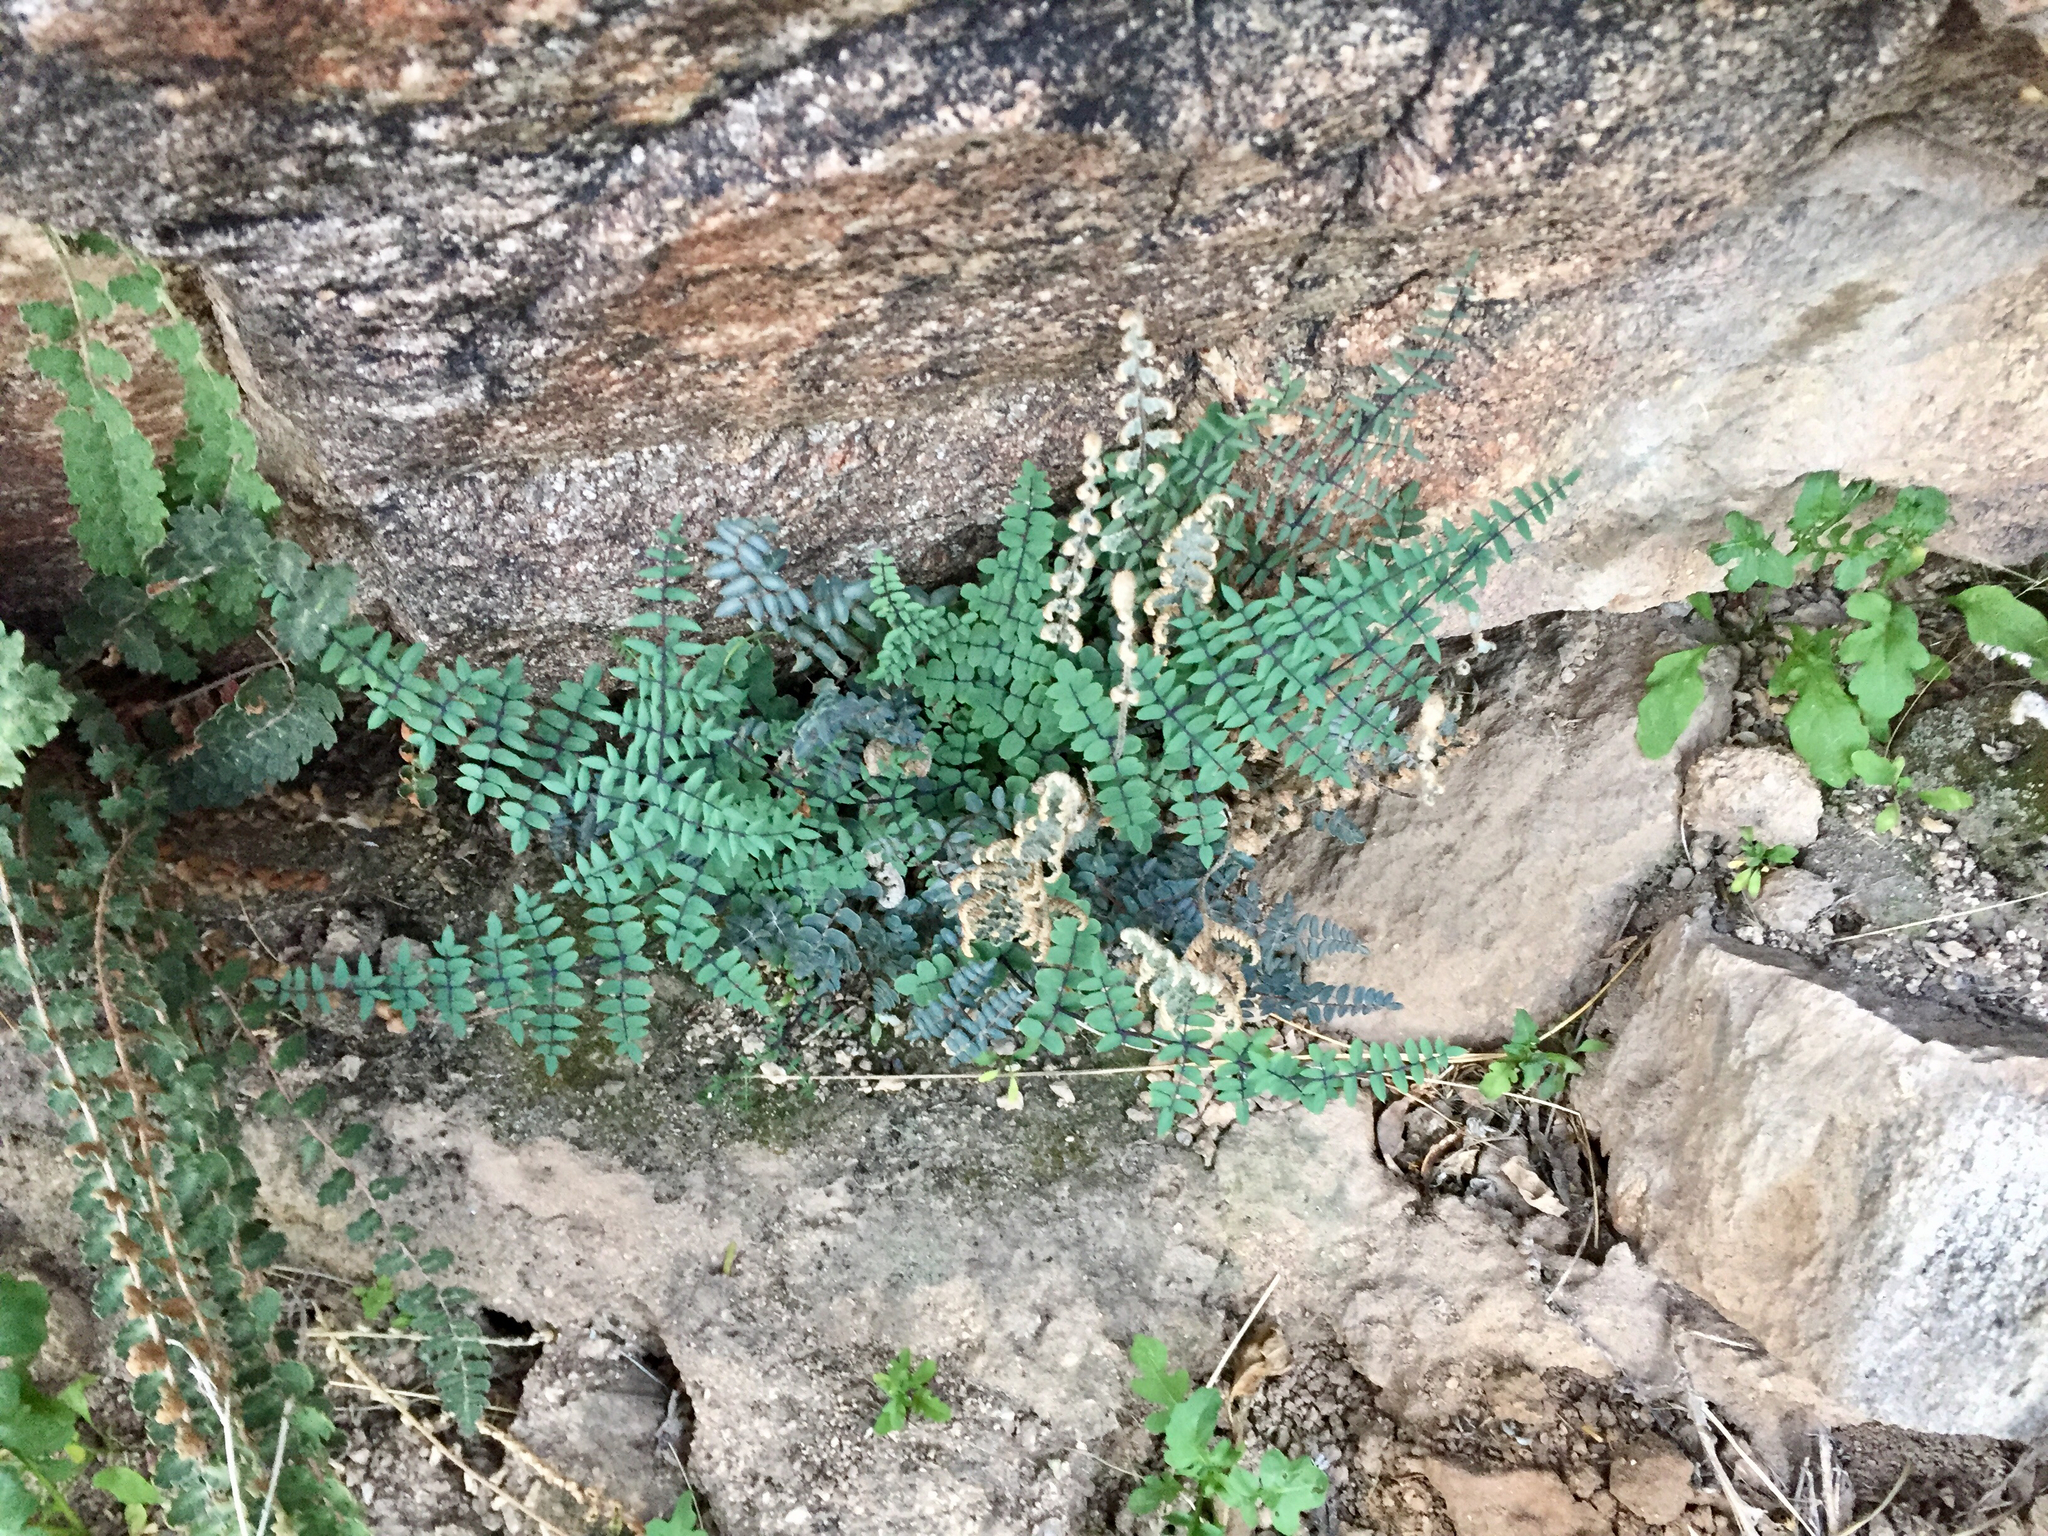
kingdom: Plantae
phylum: Tracheophyta
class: Polypodiopsida
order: Polypodiales
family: Pteridaceae
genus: Pellaea
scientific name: Pellaea truncata
